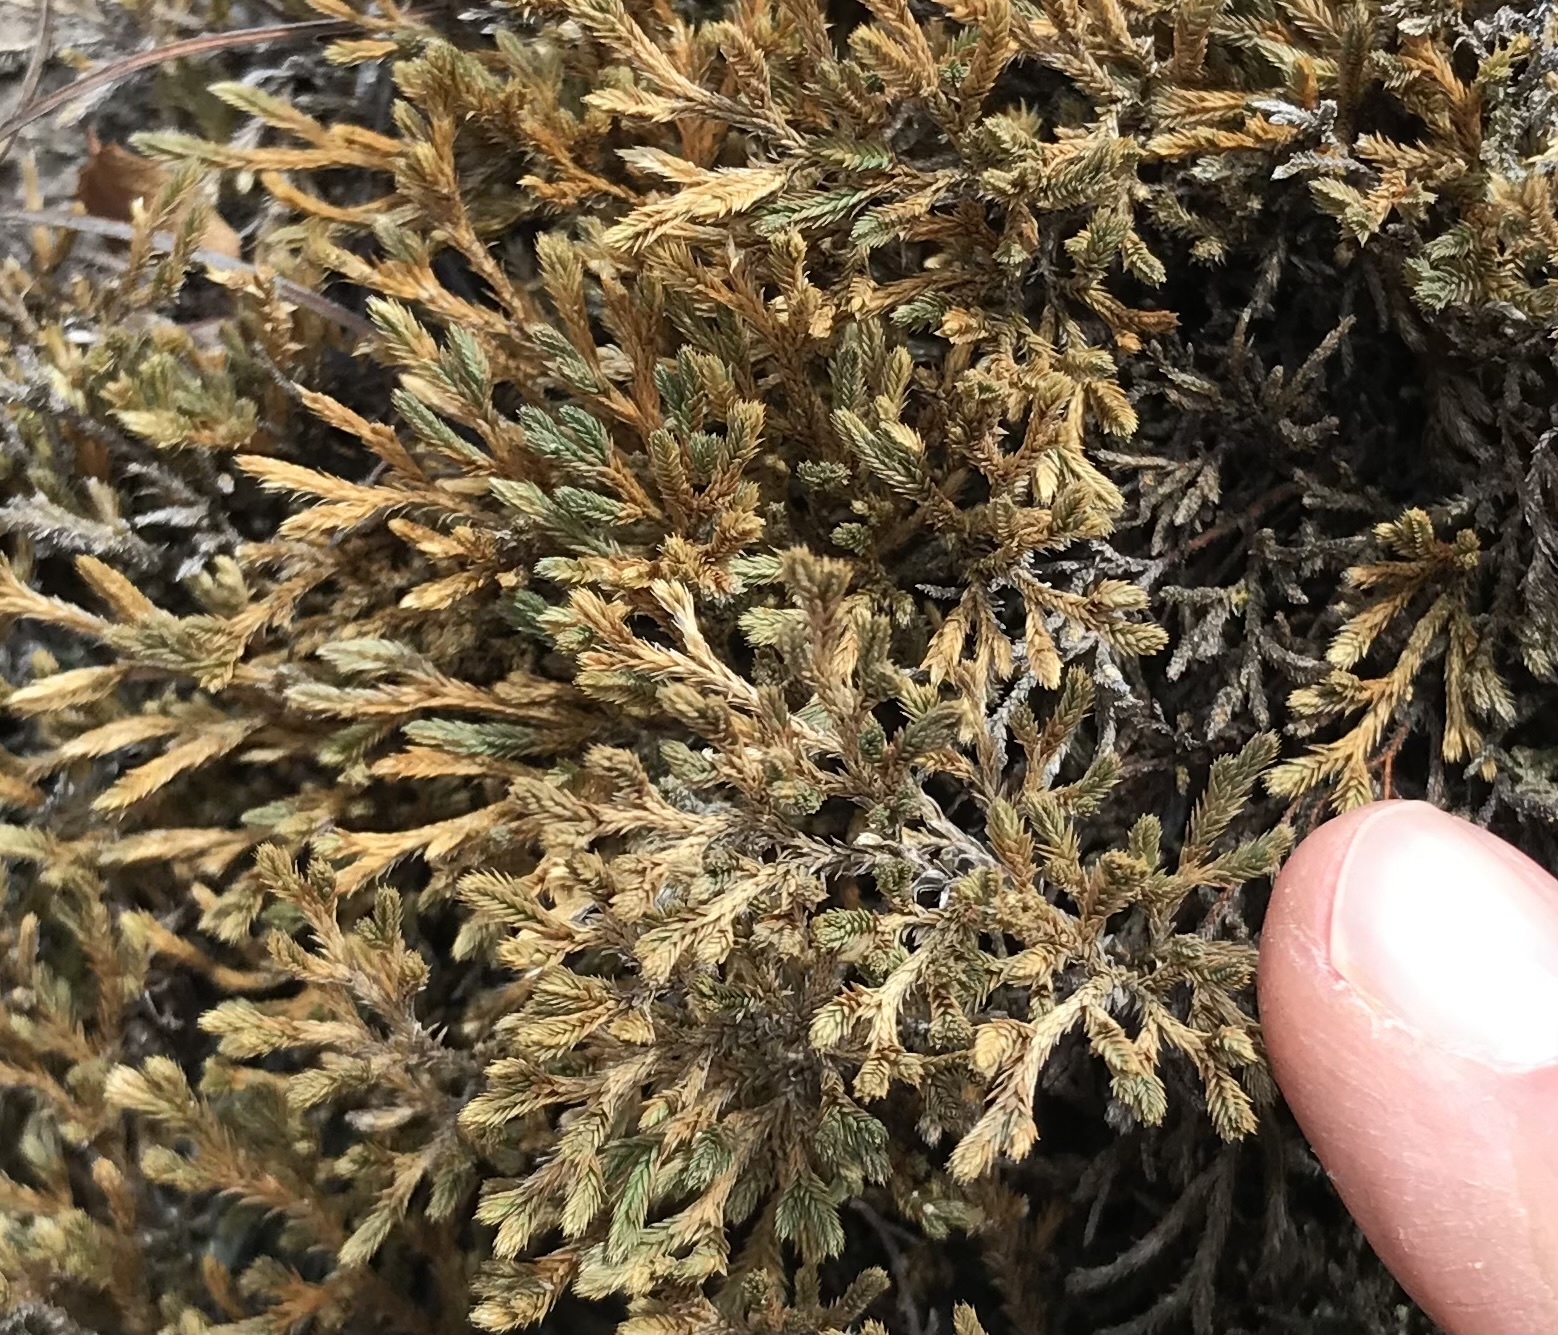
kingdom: Plantae
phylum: Tracheophyta
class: Lycopodiopsida
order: Selaginellales
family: Selaginellaceae
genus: Selaginella
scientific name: Selaginella bigelovii
